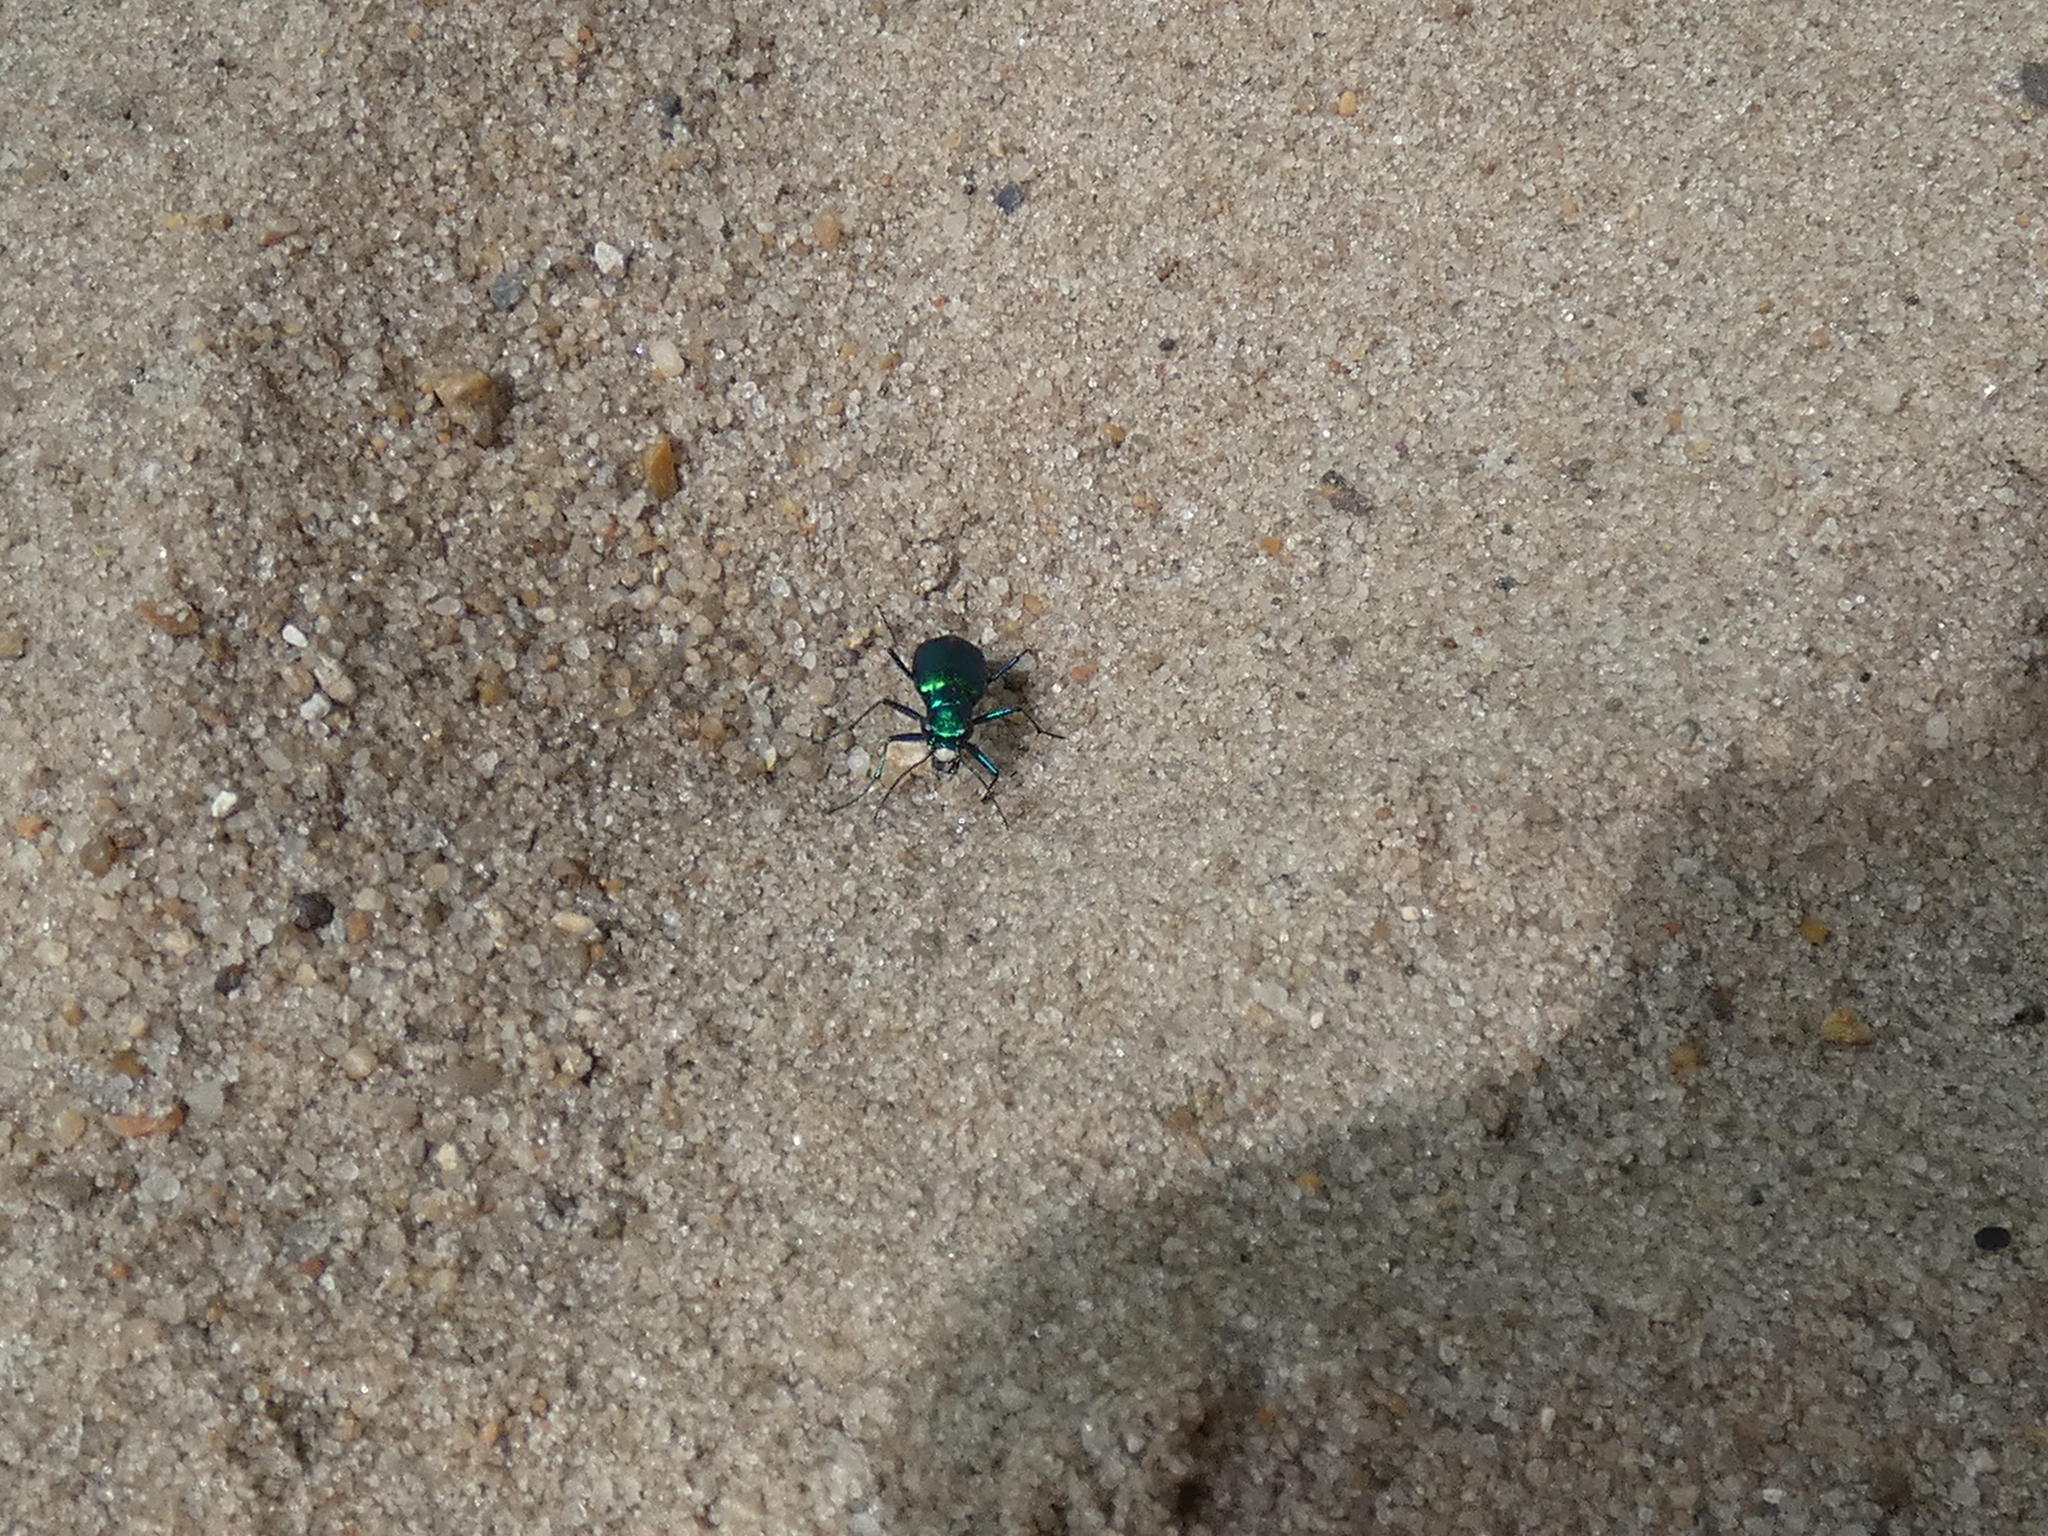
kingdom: Animalia
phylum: Arthropoda
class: Insecta
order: Coleoptera
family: Carabidae
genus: Cicindela
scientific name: Cicindela sexguttata
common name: Six-spotted tiger beetle
